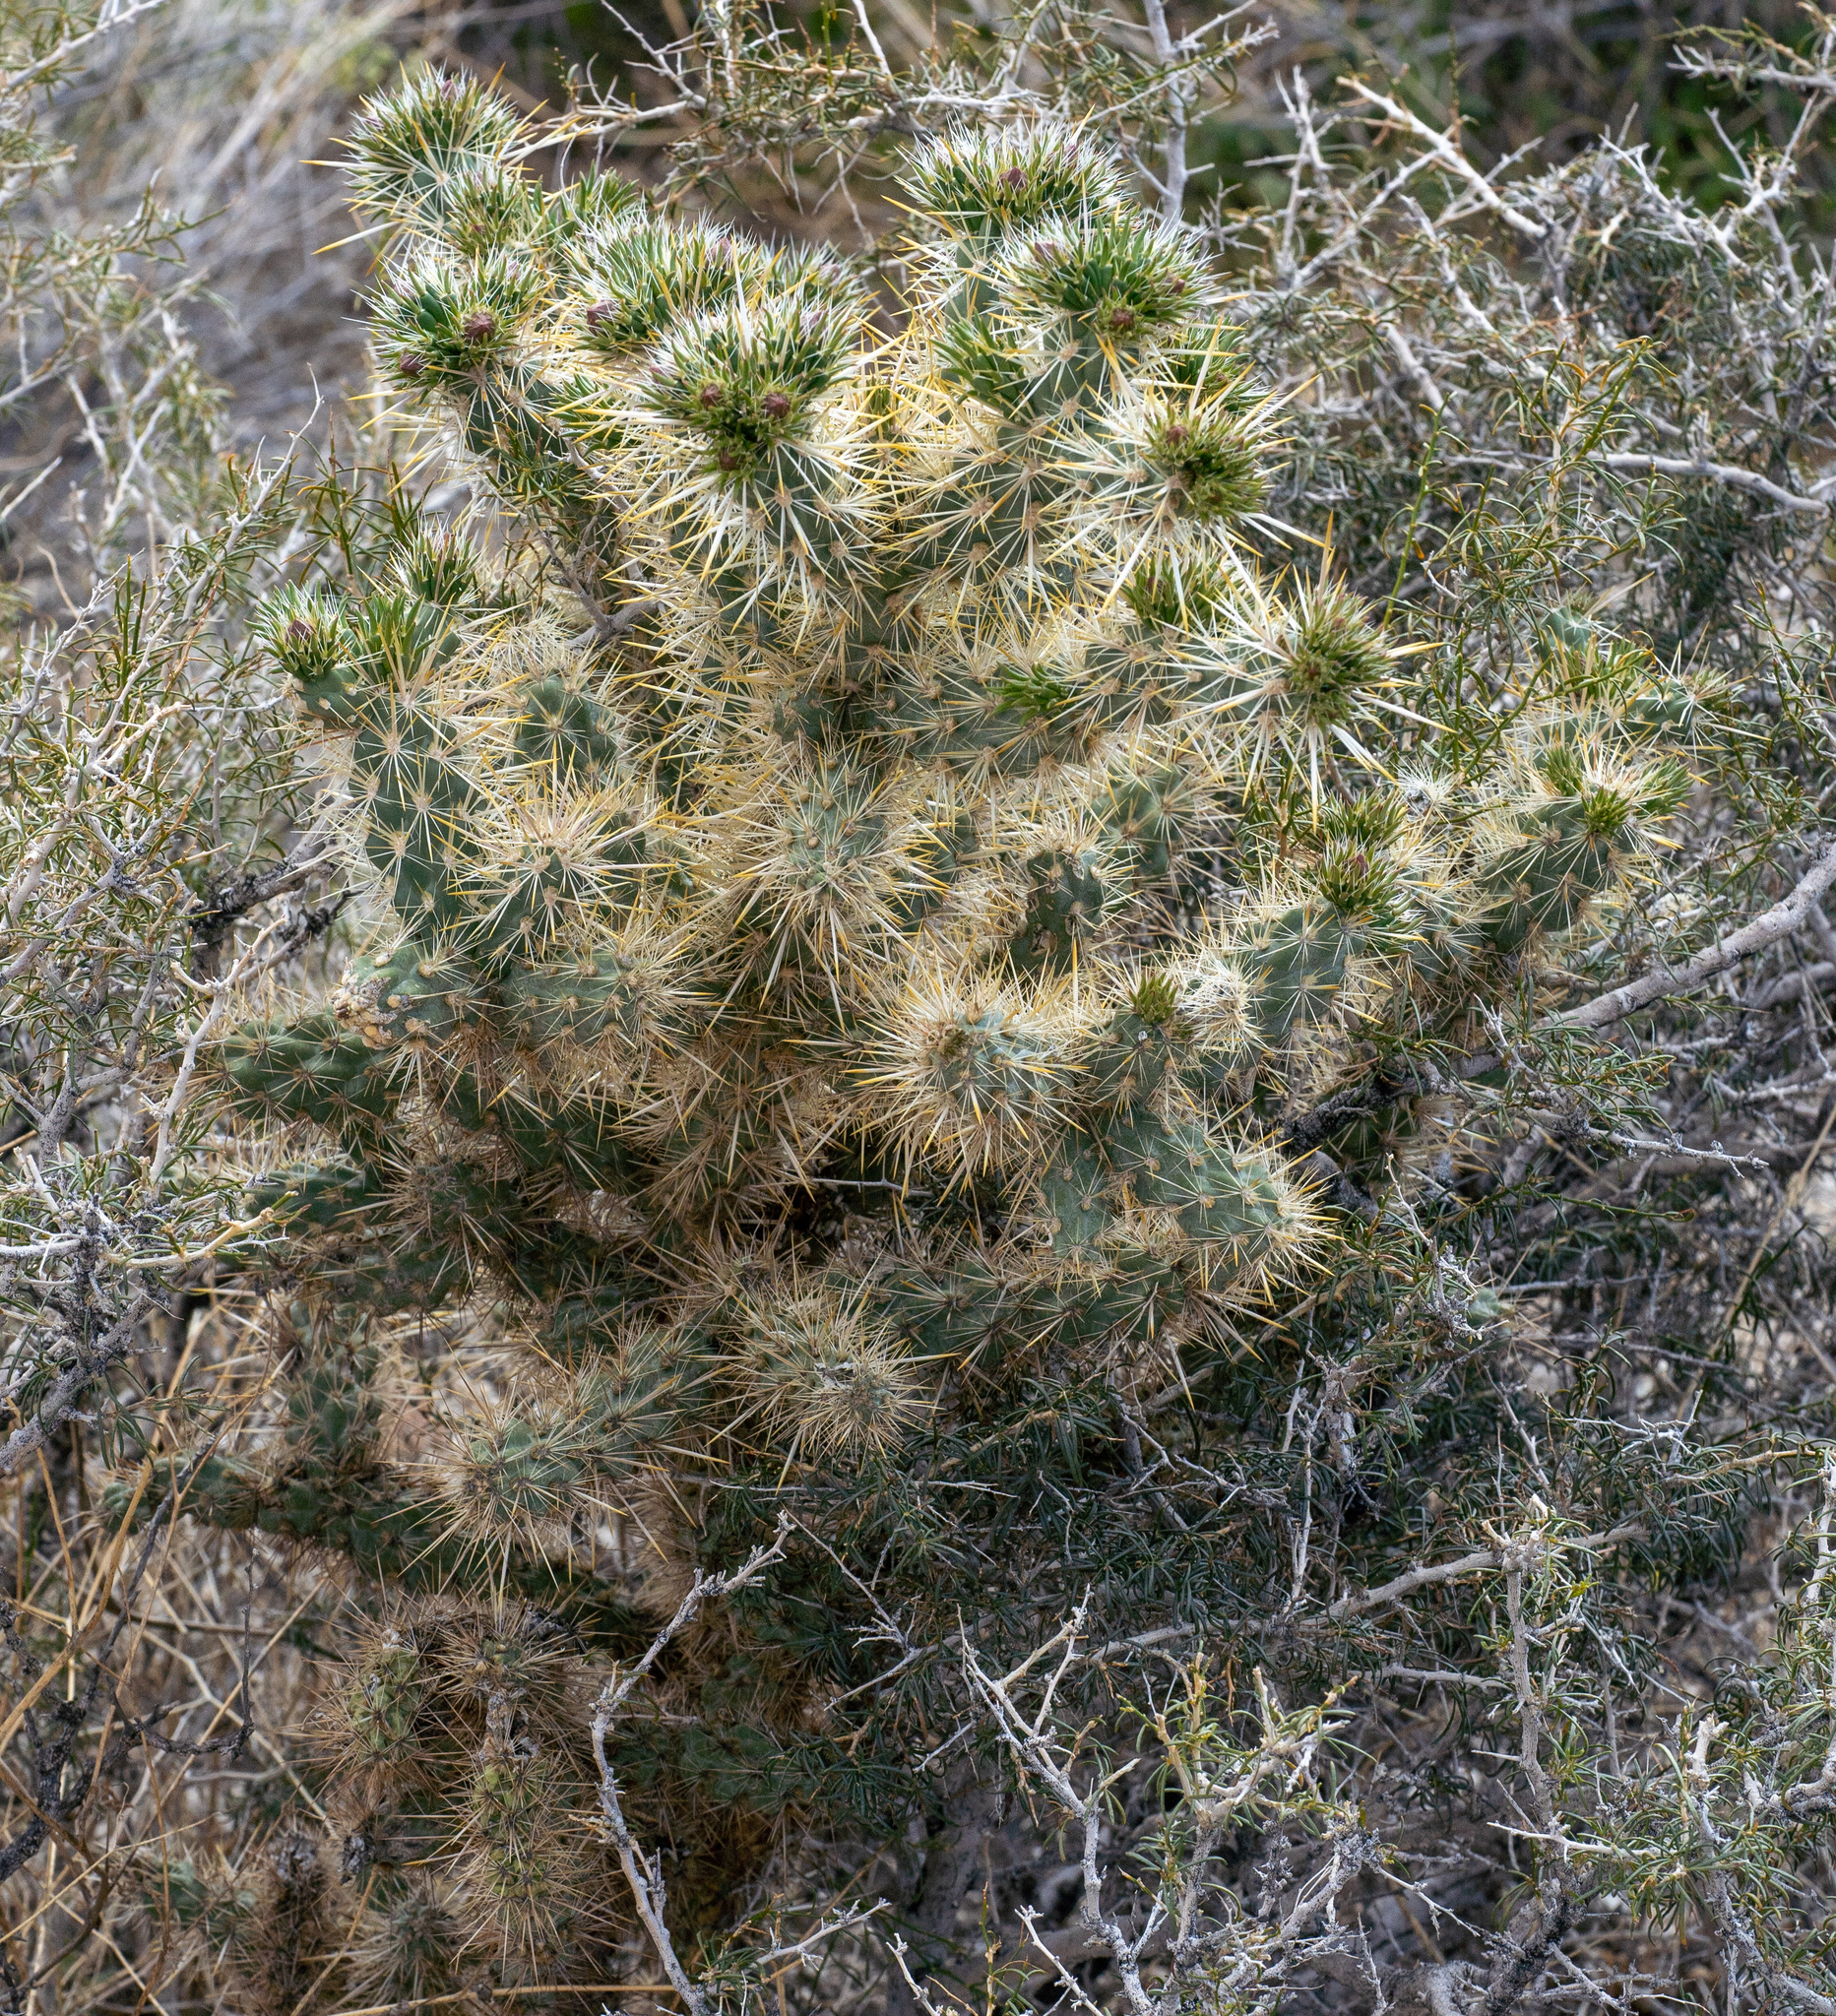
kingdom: Plantae
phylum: Tracheophyta
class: Magnoliopsida
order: Caryophyllales
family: Cactaceae
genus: Cylindropuntia
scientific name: Cylindropuntia echinocarpa
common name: Ground cholla
